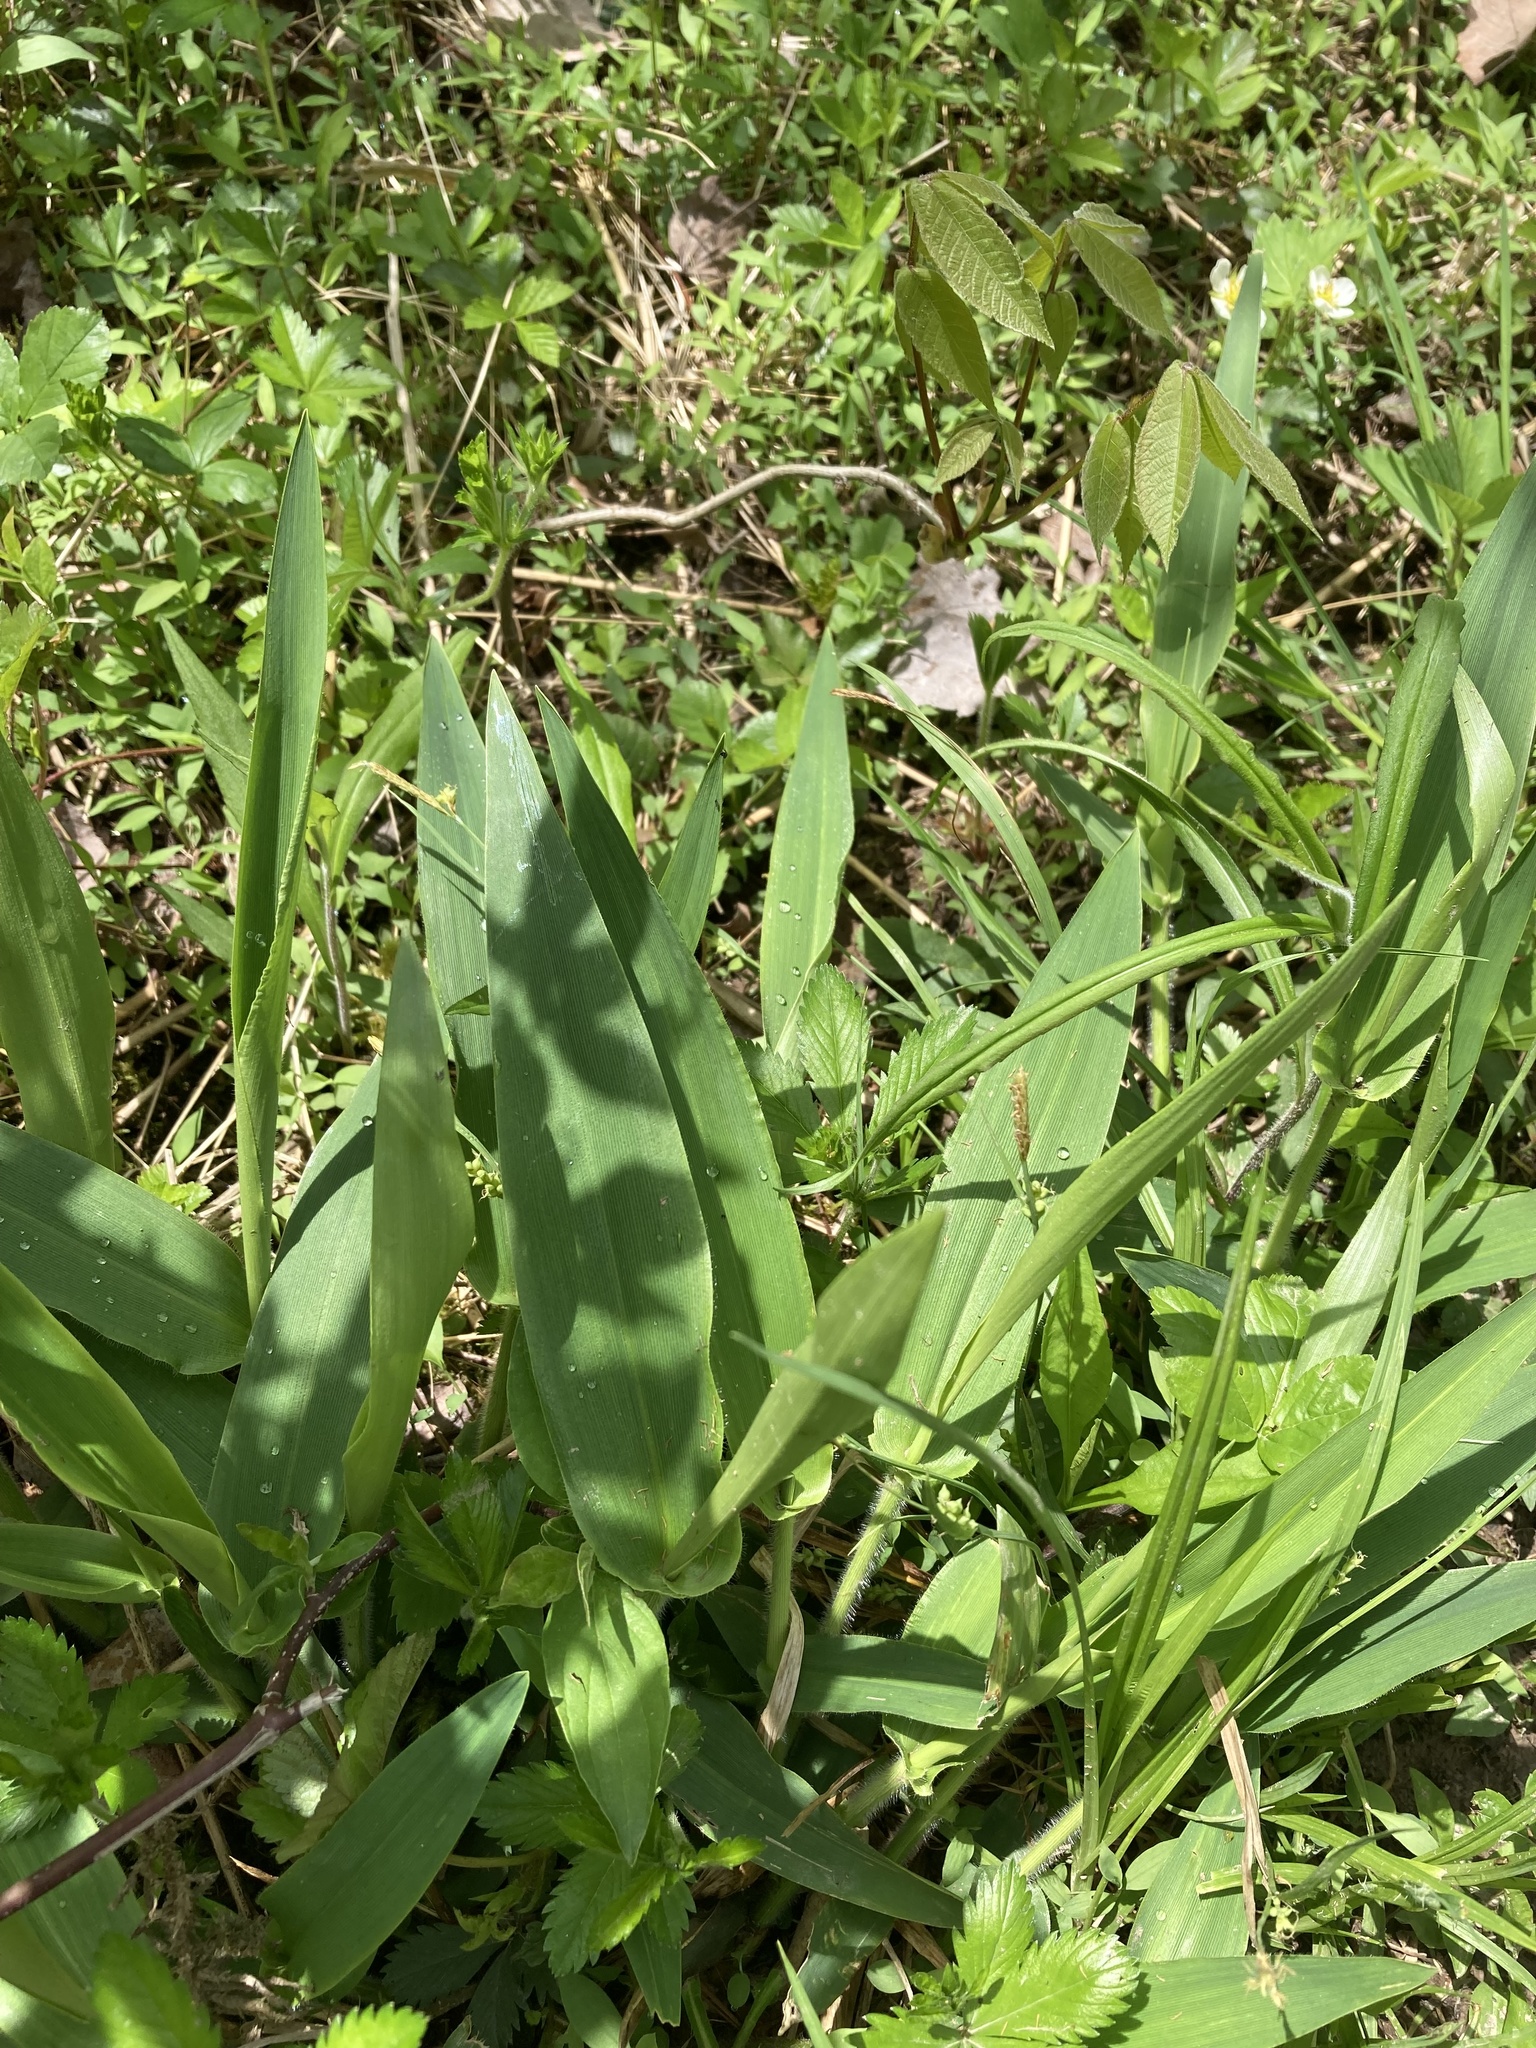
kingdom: Plantae
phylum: Tracheophyta
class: Liliopsida
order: Poales
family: Poaceae
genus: Dichanthelium
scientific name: Dichanthelium clandestinum
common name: Deer-tongue grass
